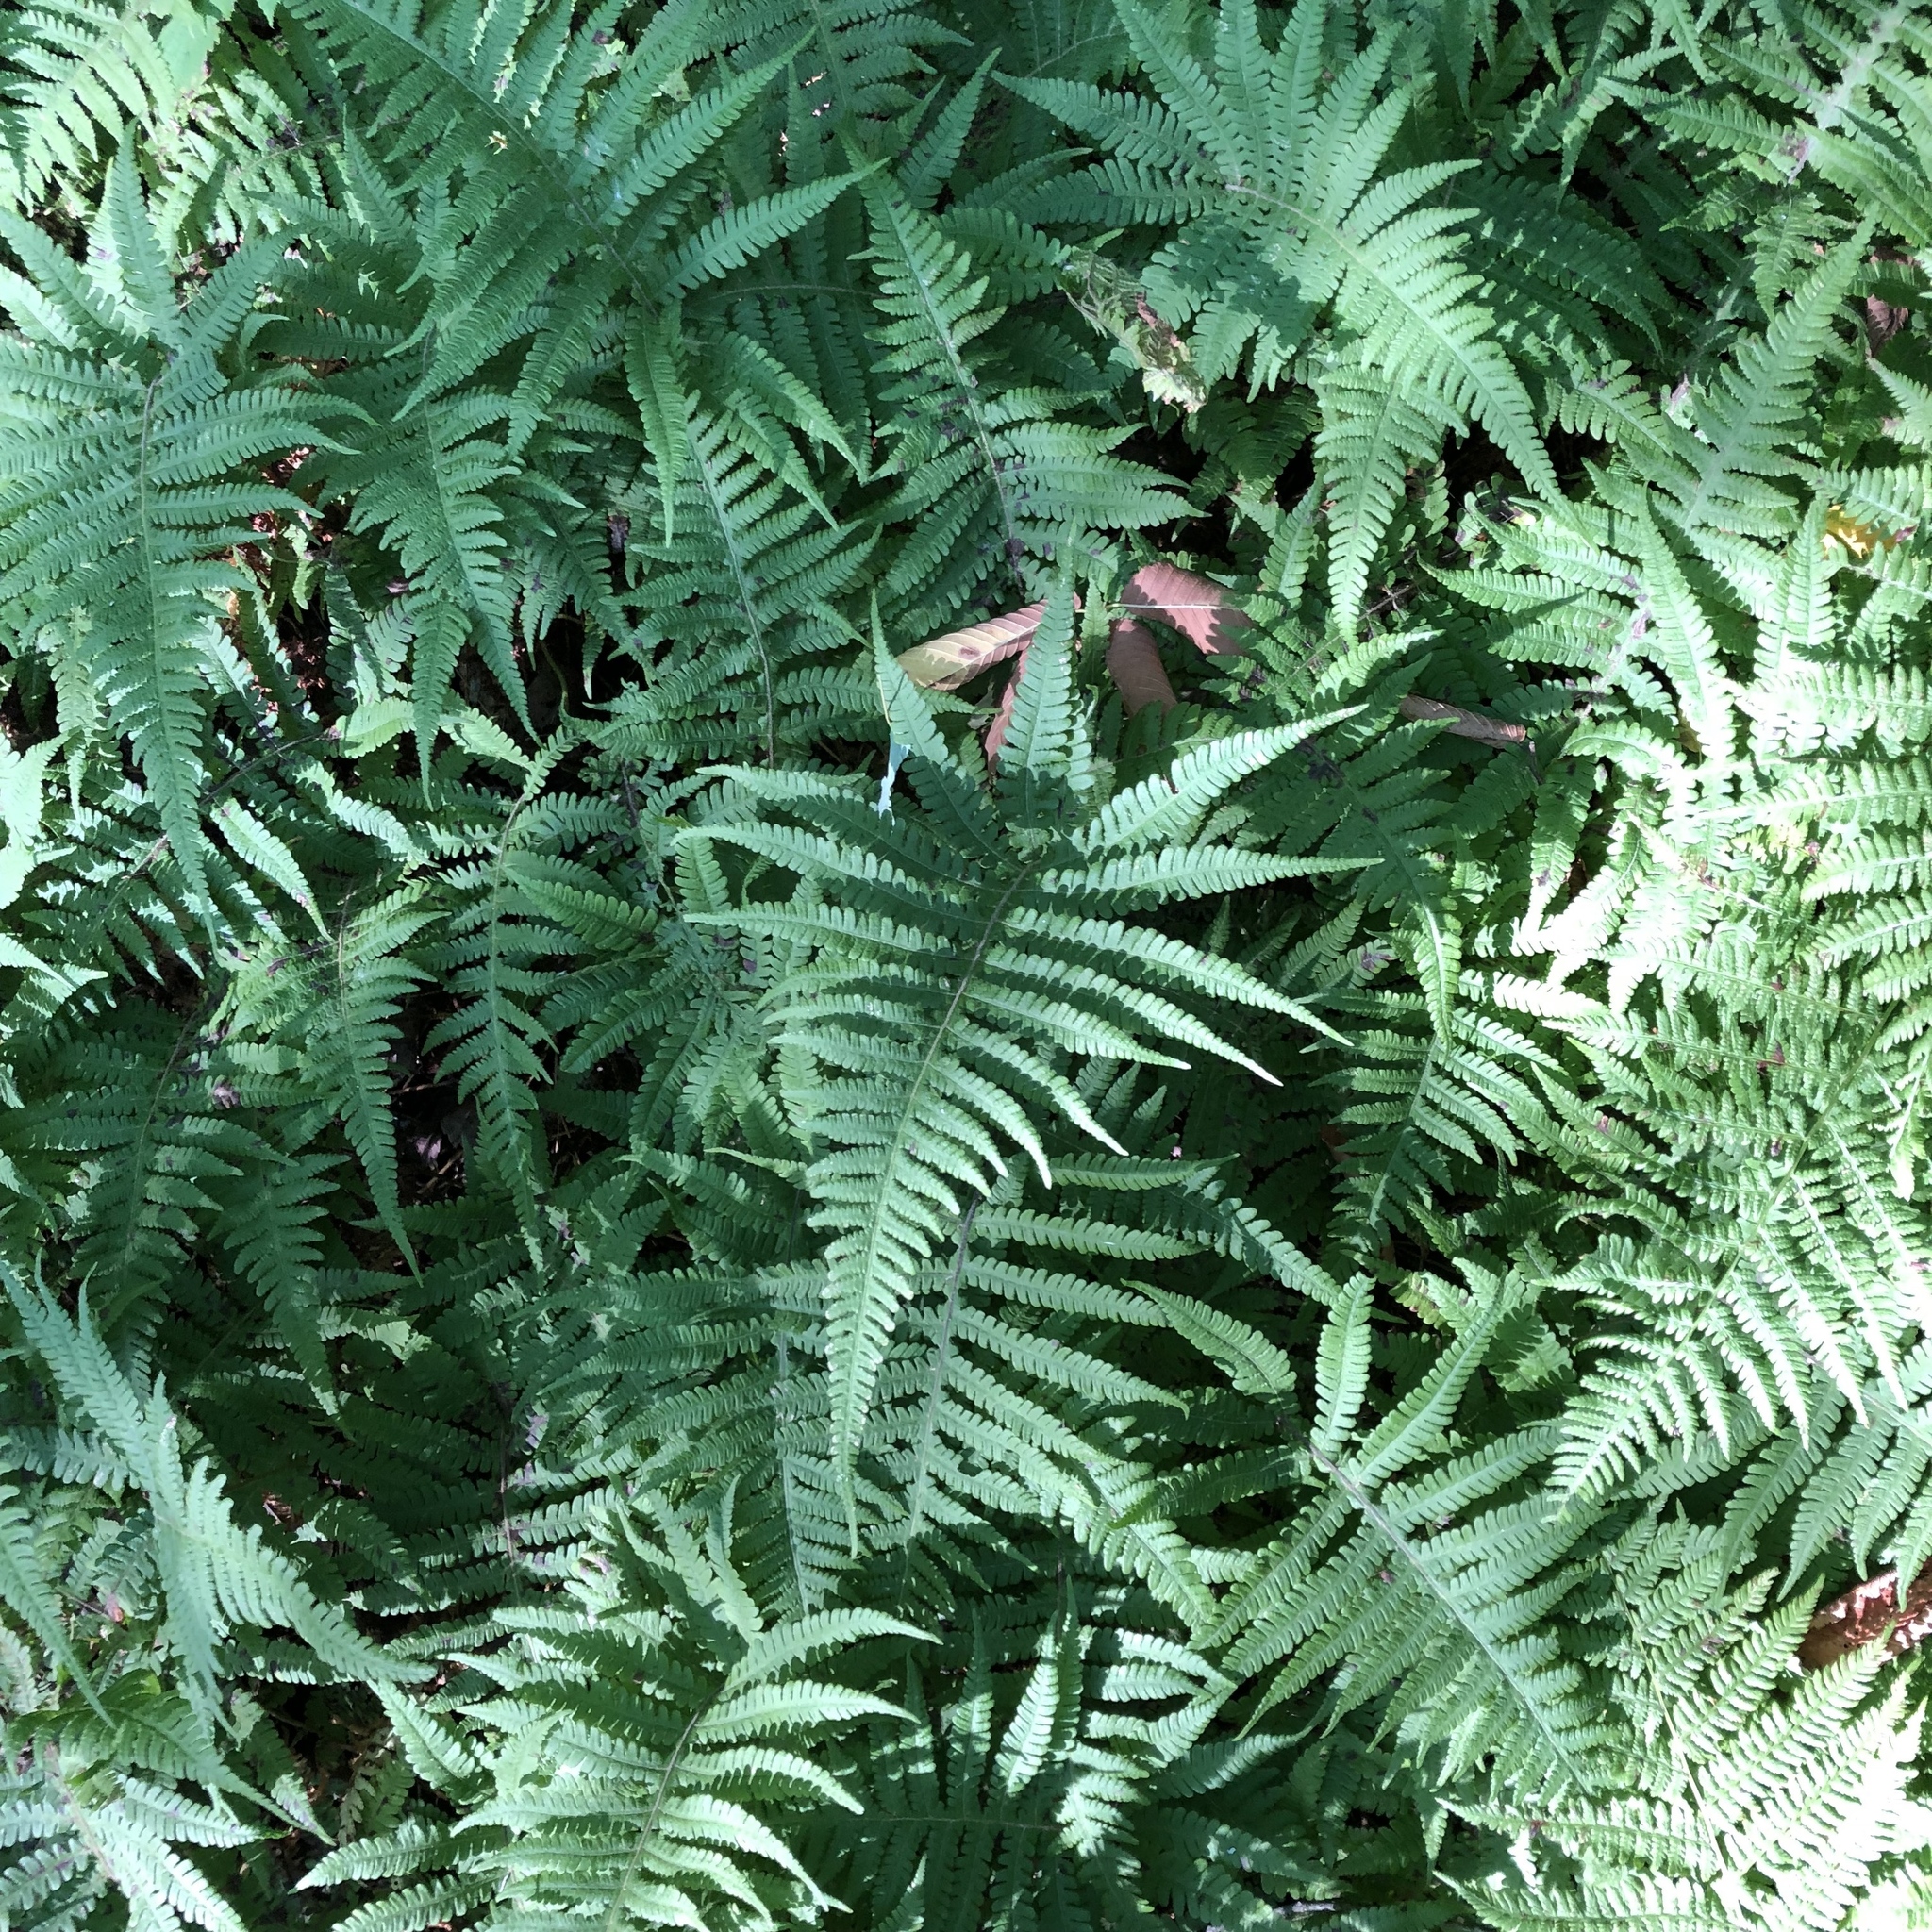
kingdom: Plantae
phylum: Tracheophyta
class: Polypodiopsida
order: Polypodiales
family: Thelypteridaceae
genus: Phegopteris
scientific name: Phegopteris connectilis
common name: Beech fern
